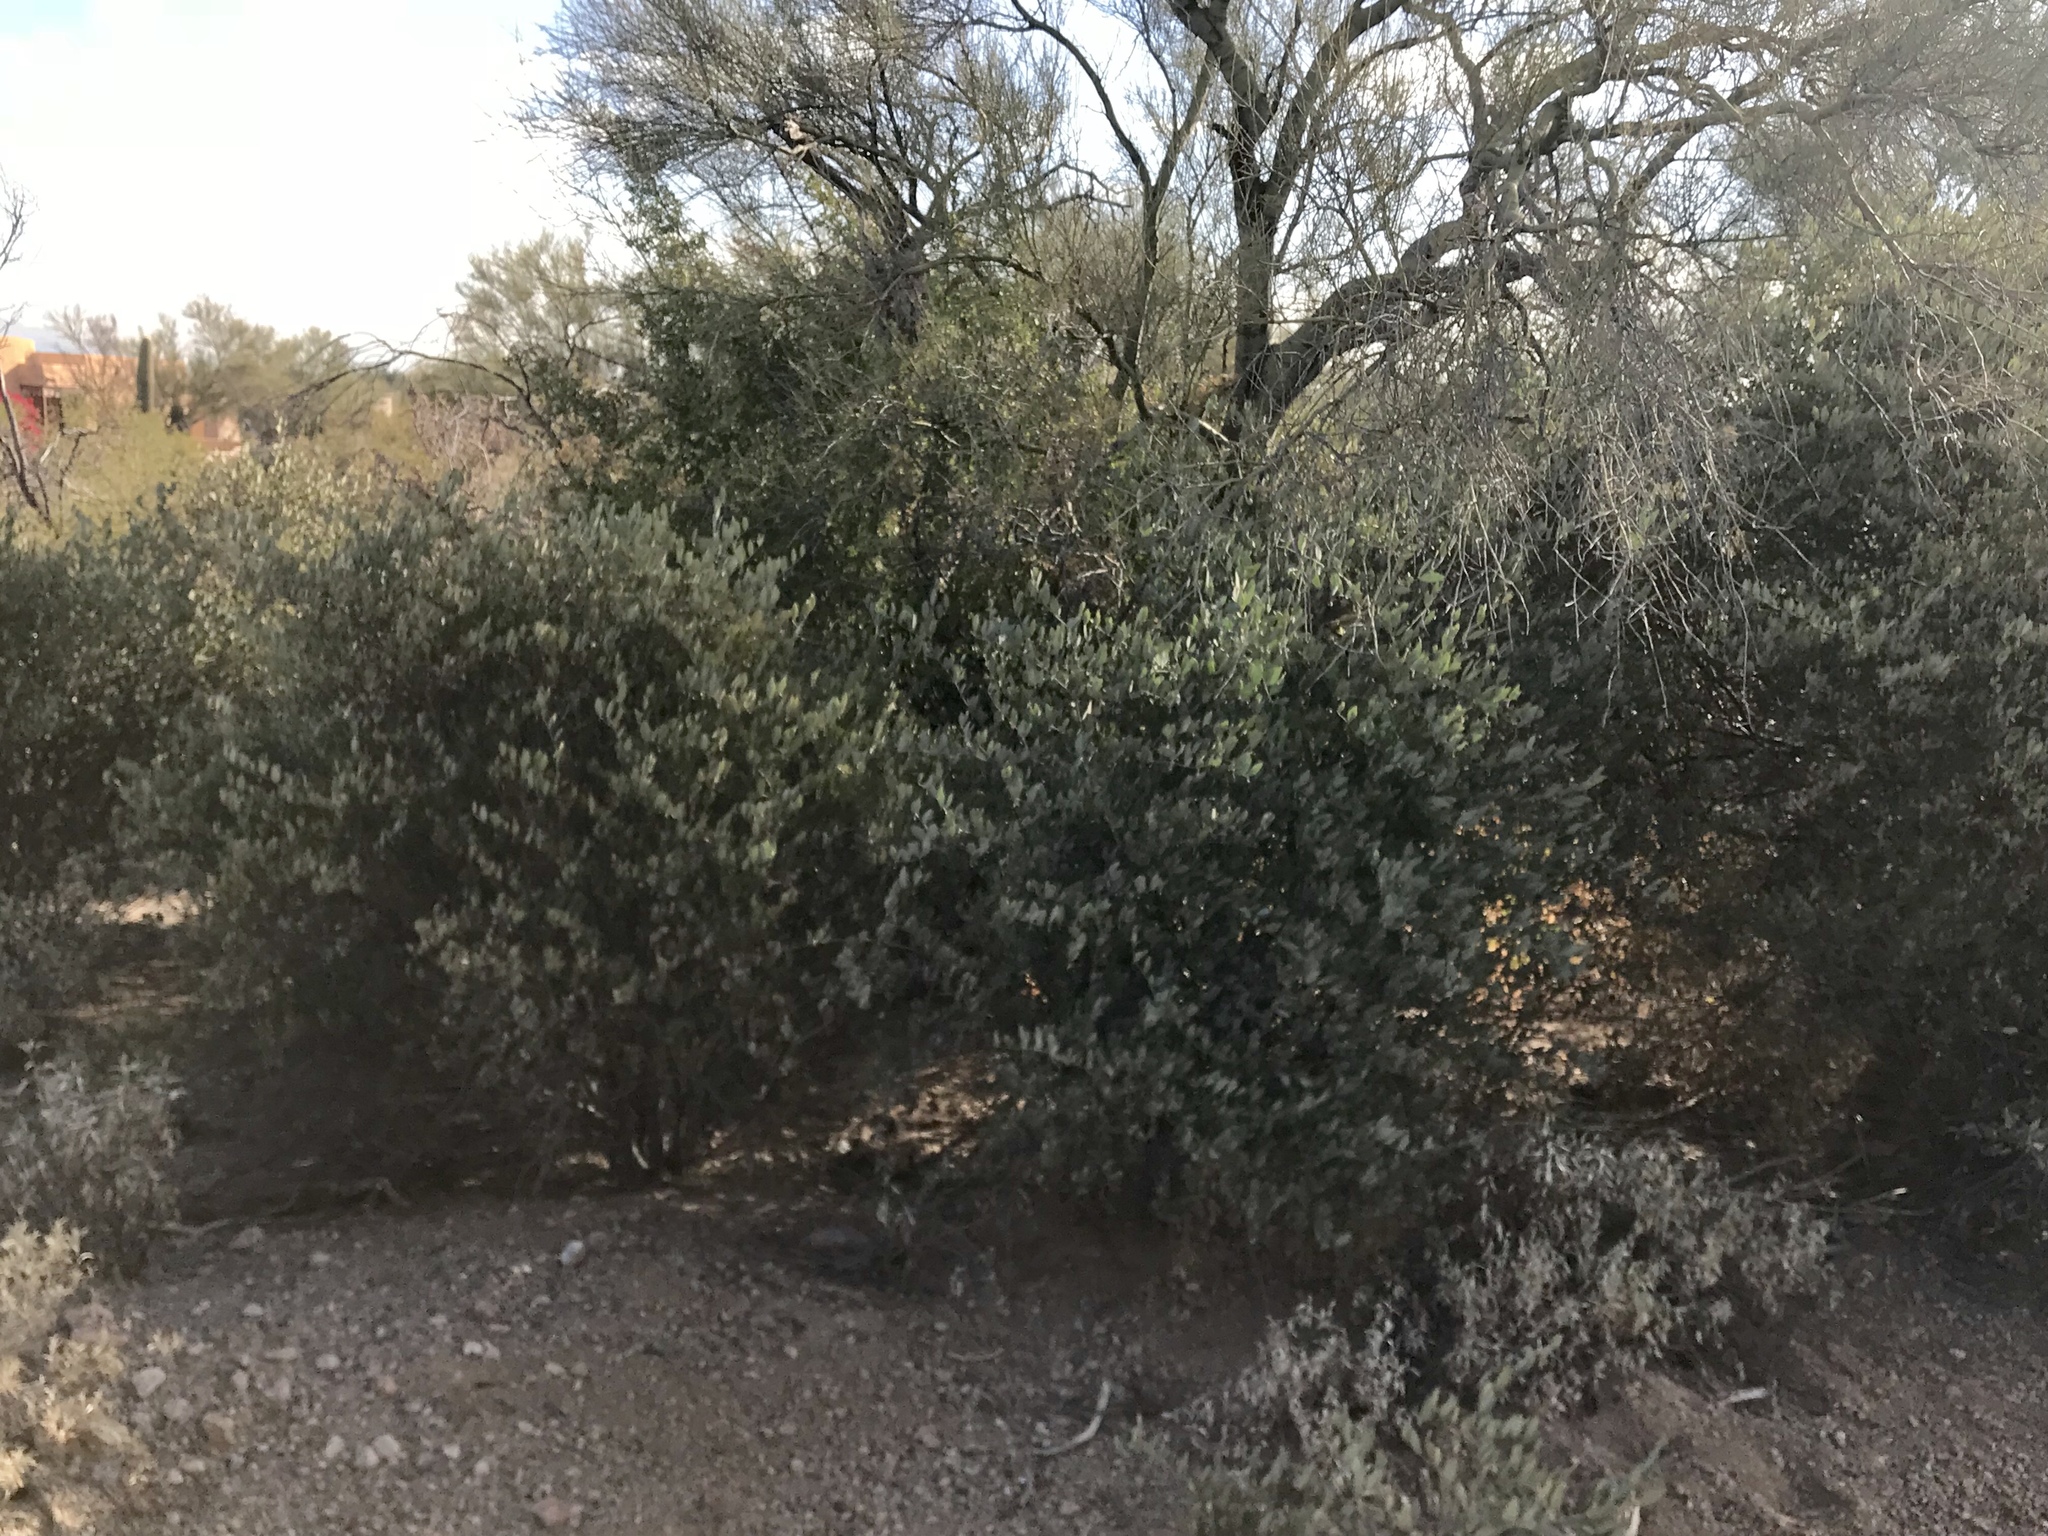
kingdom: Plantae
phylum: Tracheophyta
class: Magnoliopsida
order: Caryophyllales
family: Simmondsiaceae
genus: Simmondsia
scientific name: Simmondsia chinensis
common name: Jojoba
